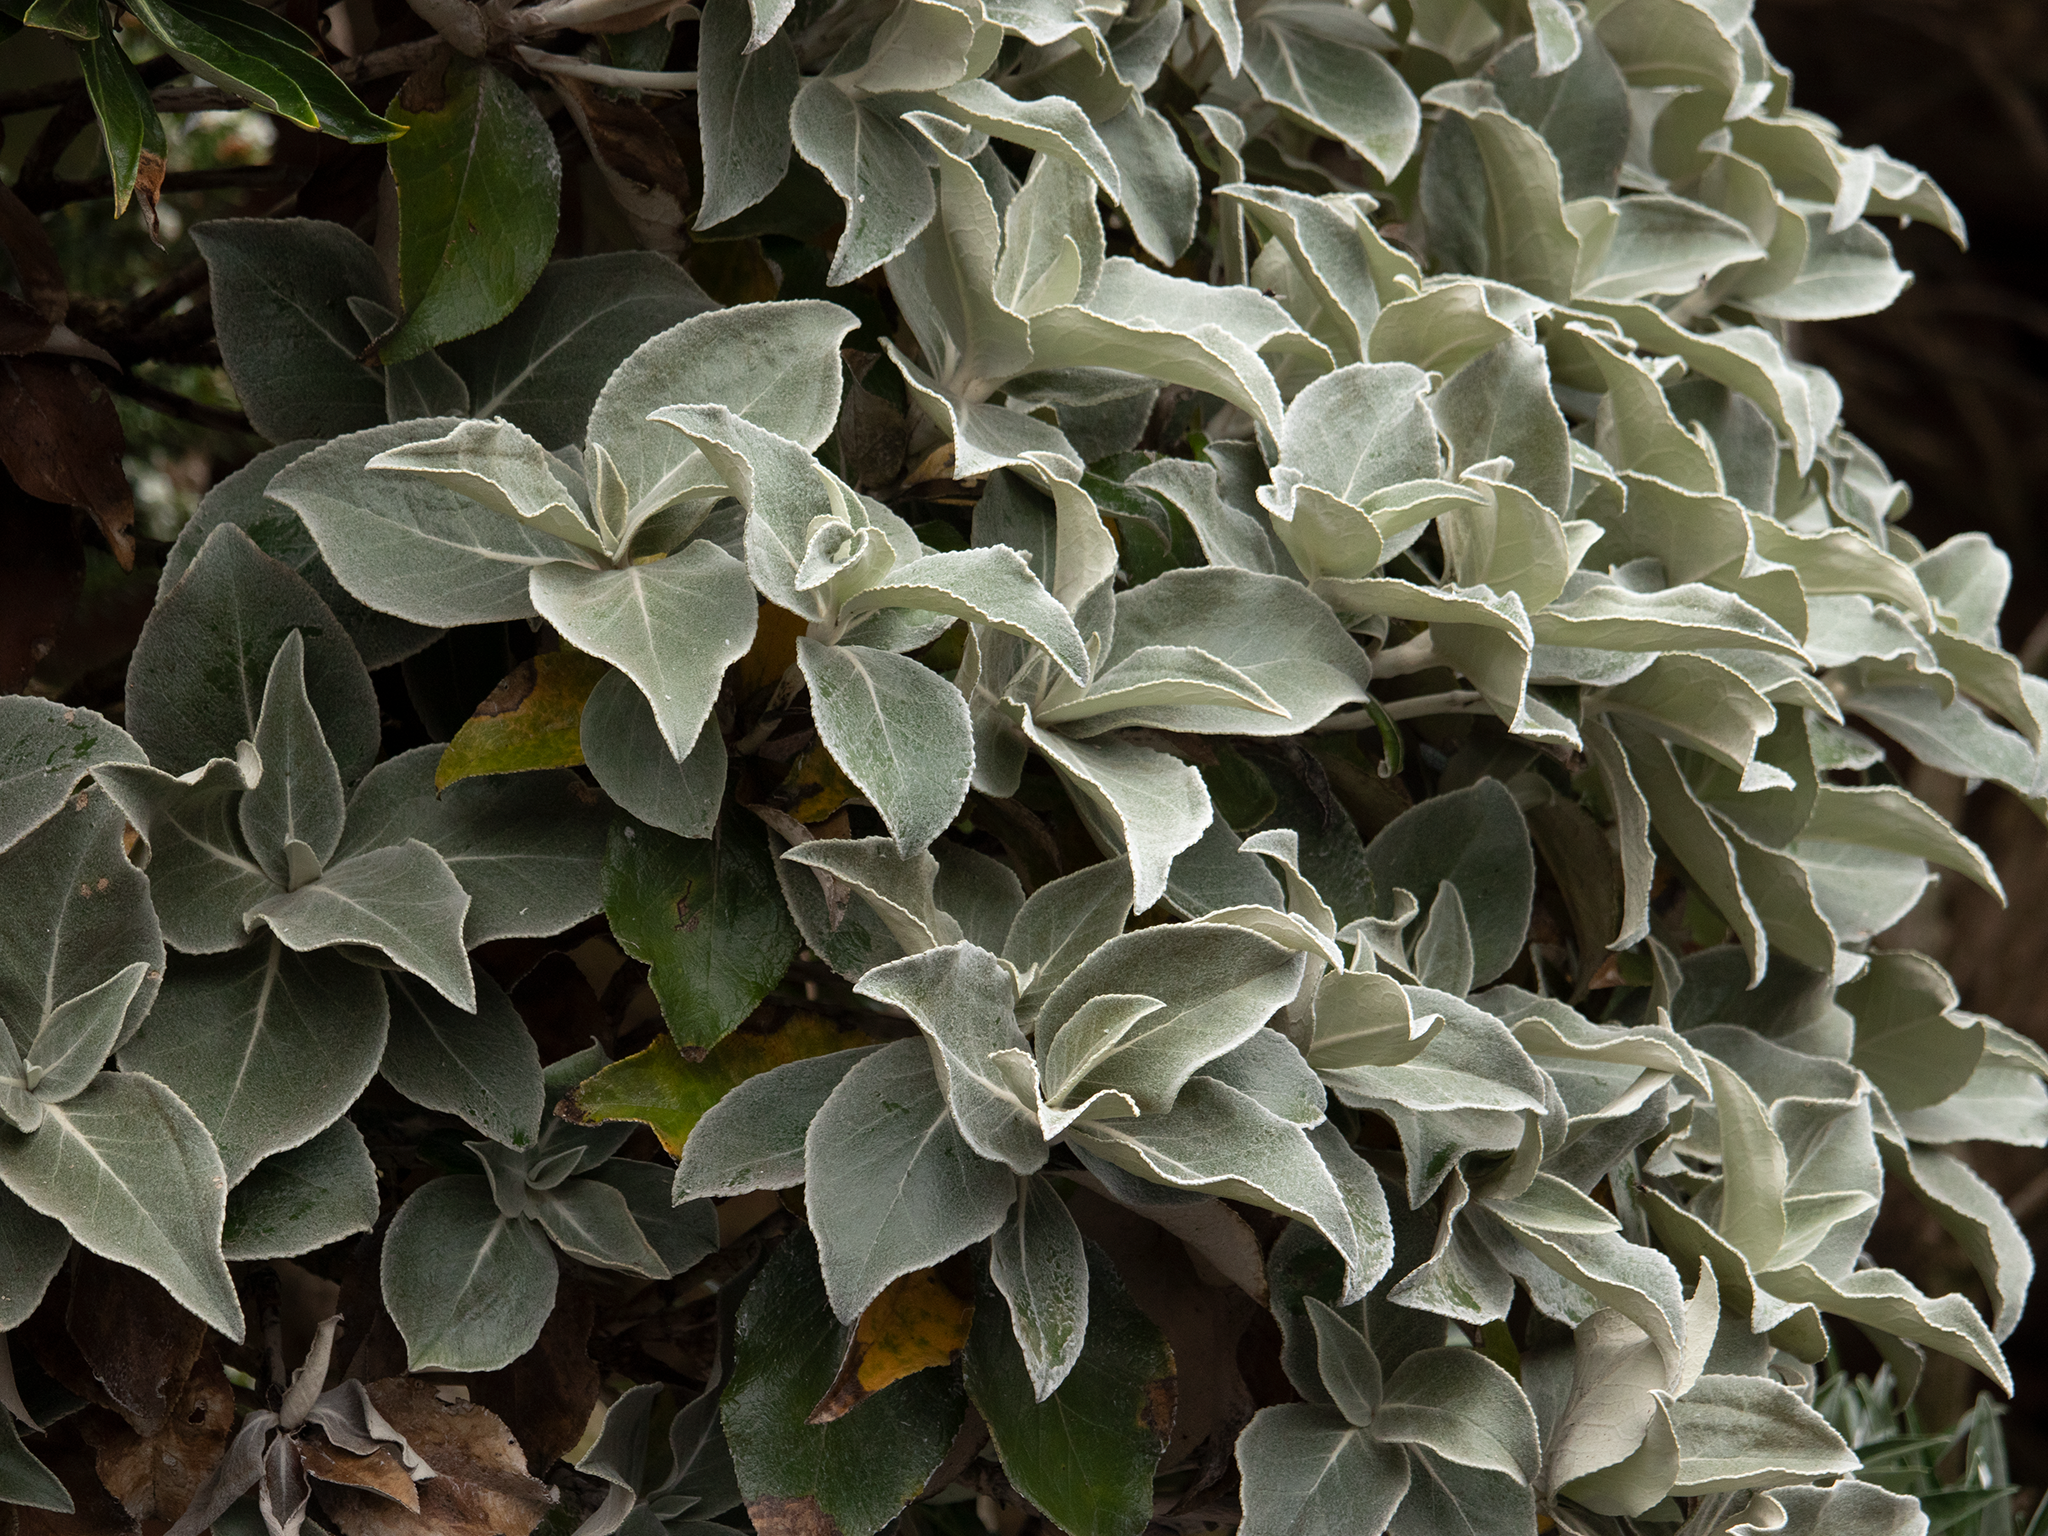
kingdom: Plantae
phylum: Tracheophyta
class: Magnoliopsida
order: Asterales
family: Asteraceae
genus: Macrolearia
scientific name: Macrolearia lyallii
